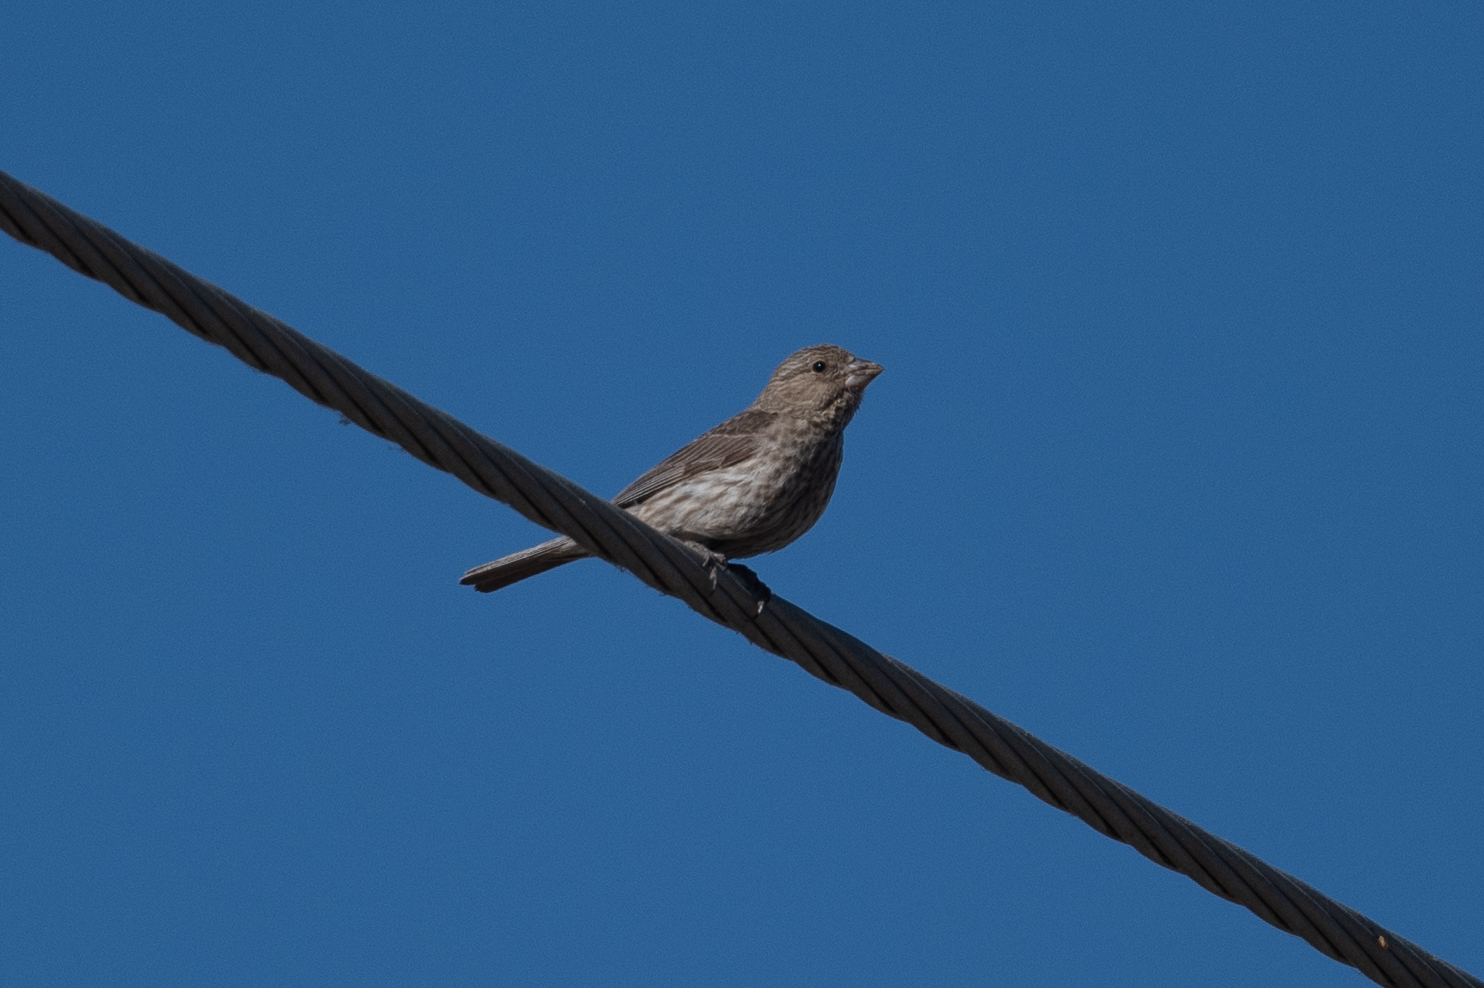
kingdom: Animalia
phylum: Chordata
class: Aves
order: Passeriformes
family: Fringillidae
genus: Haemorhous
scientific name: Haemorhous mexicanus
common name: House finch
